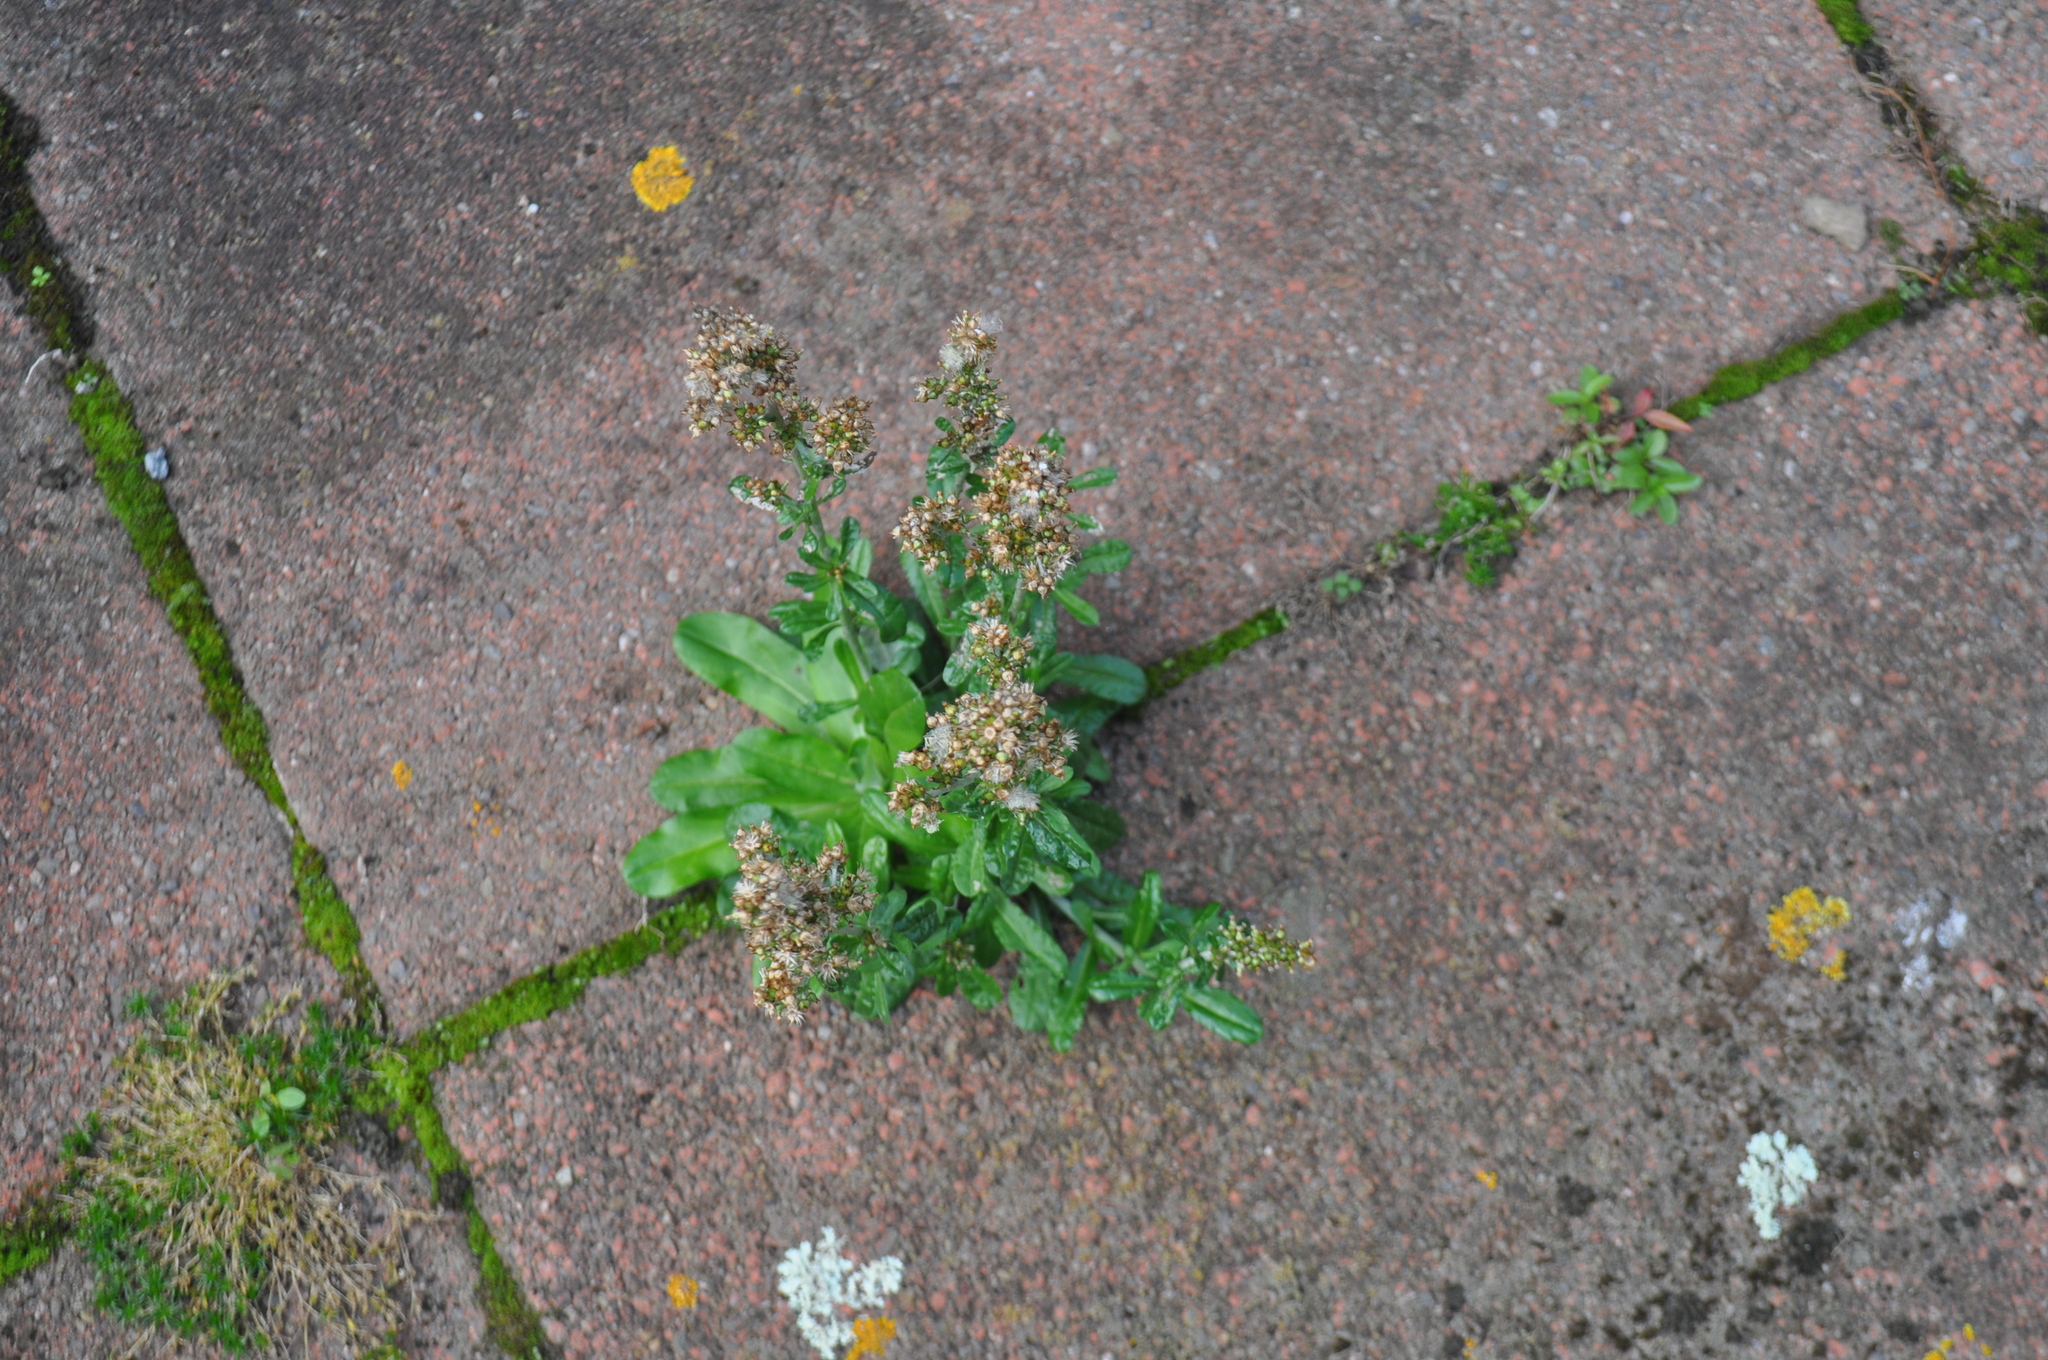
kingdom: Plantae
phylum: Tracheophyta
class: Magnoliopsida
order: Asterales
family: Asteraceae
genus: Gamochaeta
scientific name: Gamochaeta americana
